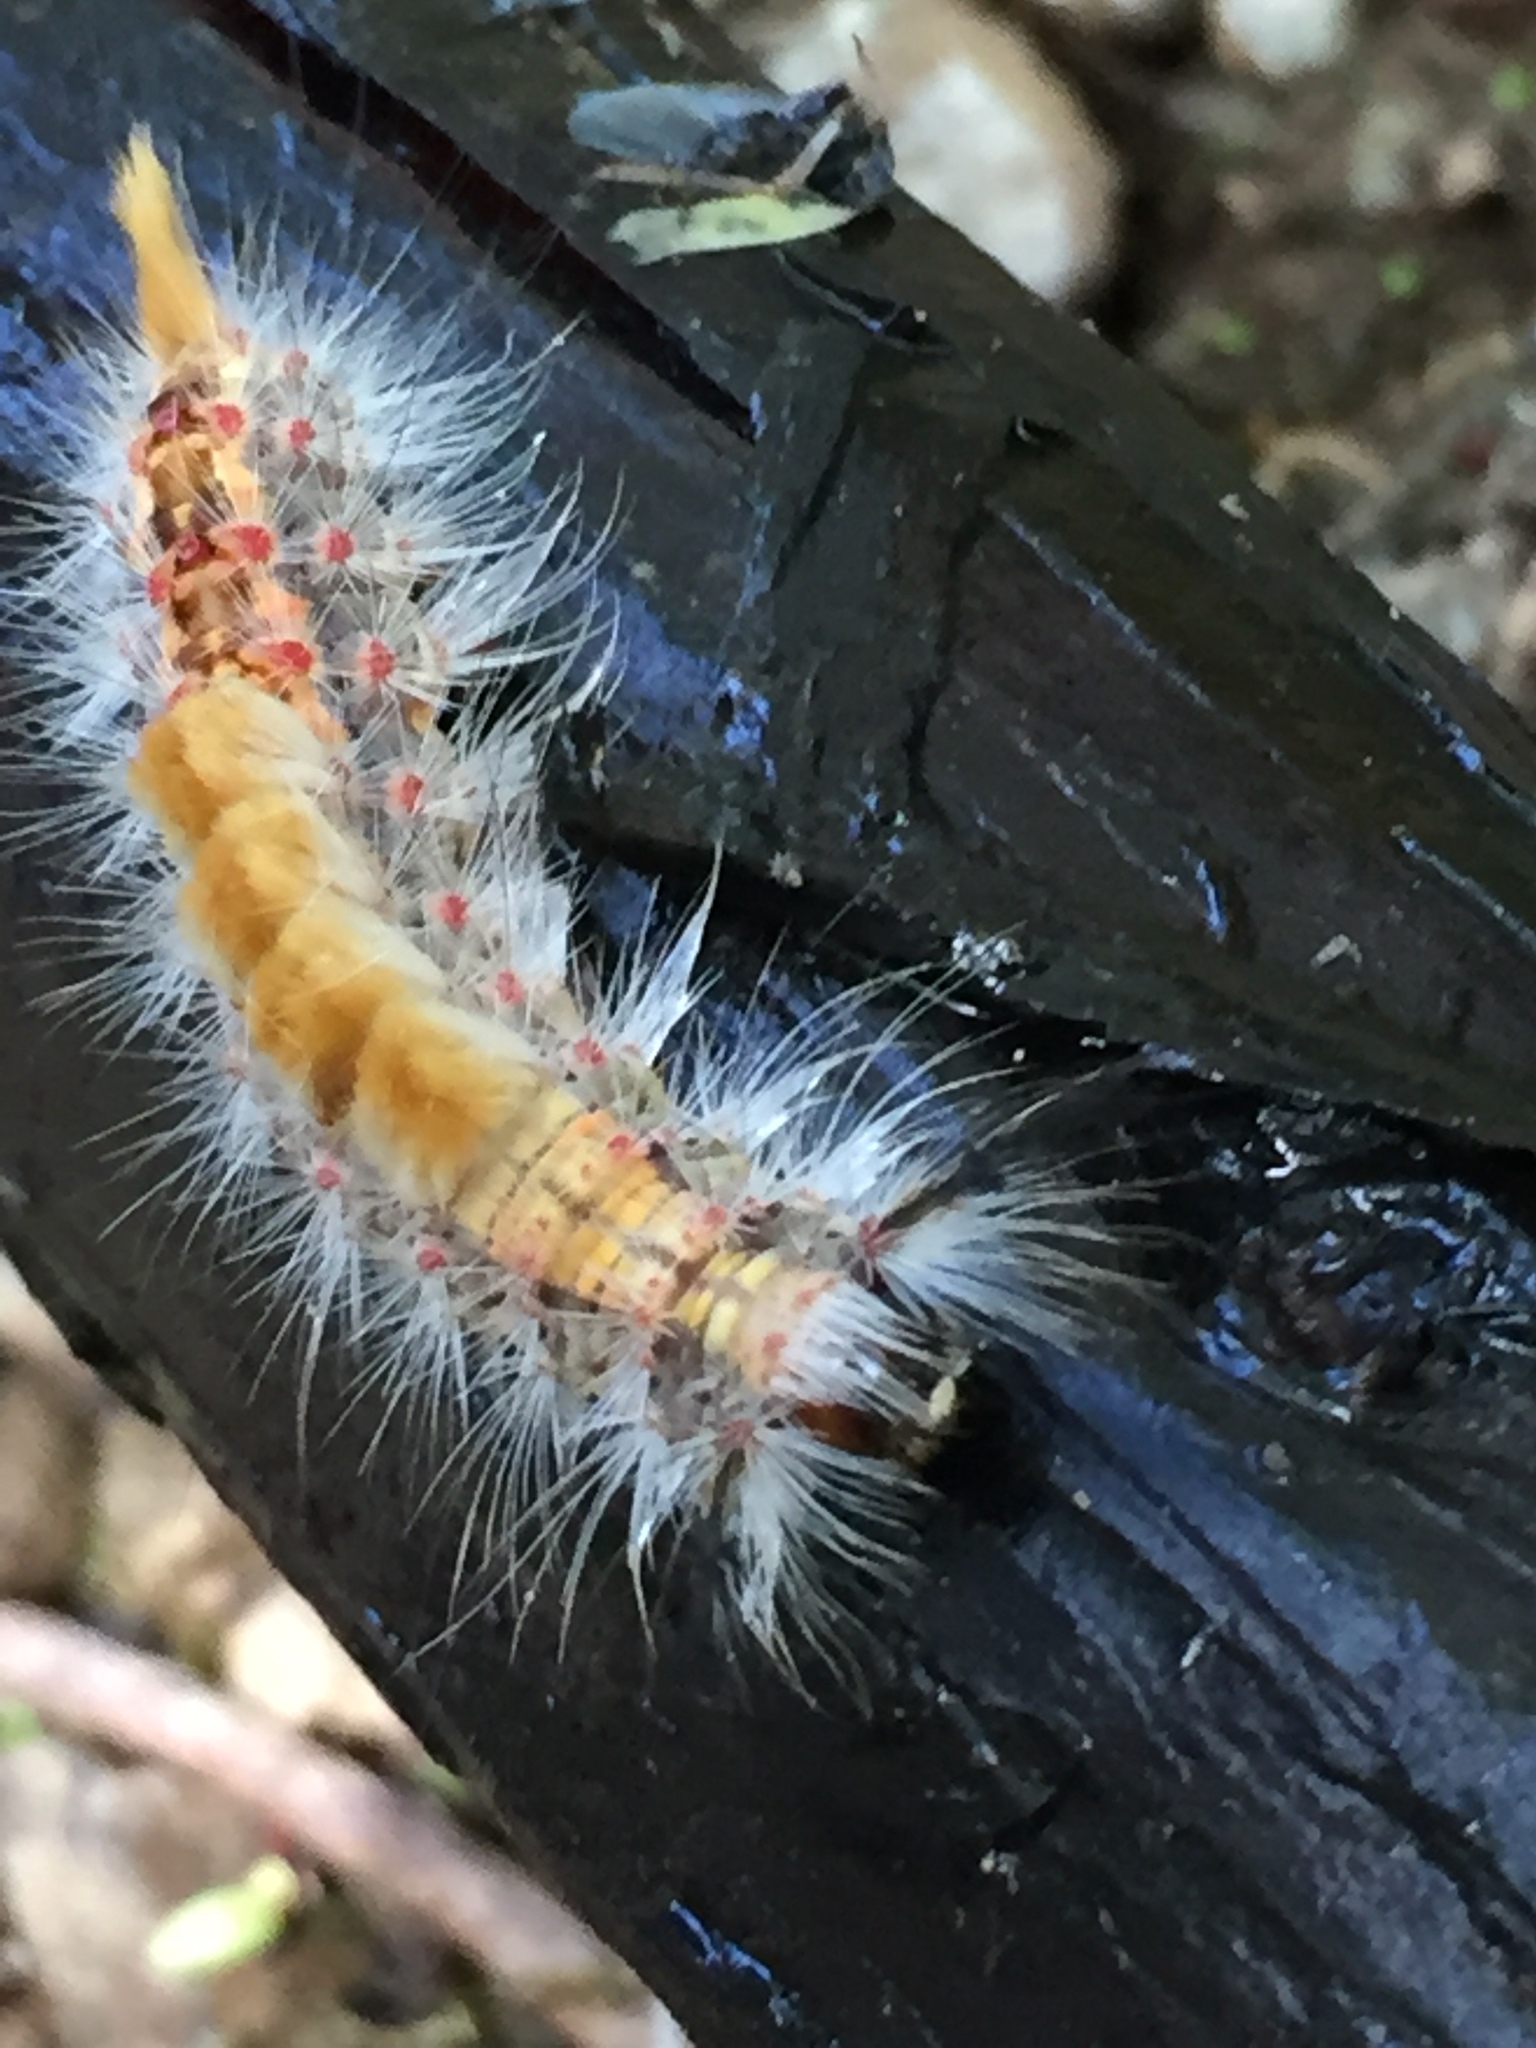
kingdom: Animalia
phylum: Arthropoda
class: Insecta
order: Lepidoptera
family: Erebidae
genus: Orgyia
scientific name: Orgyia vetusta
